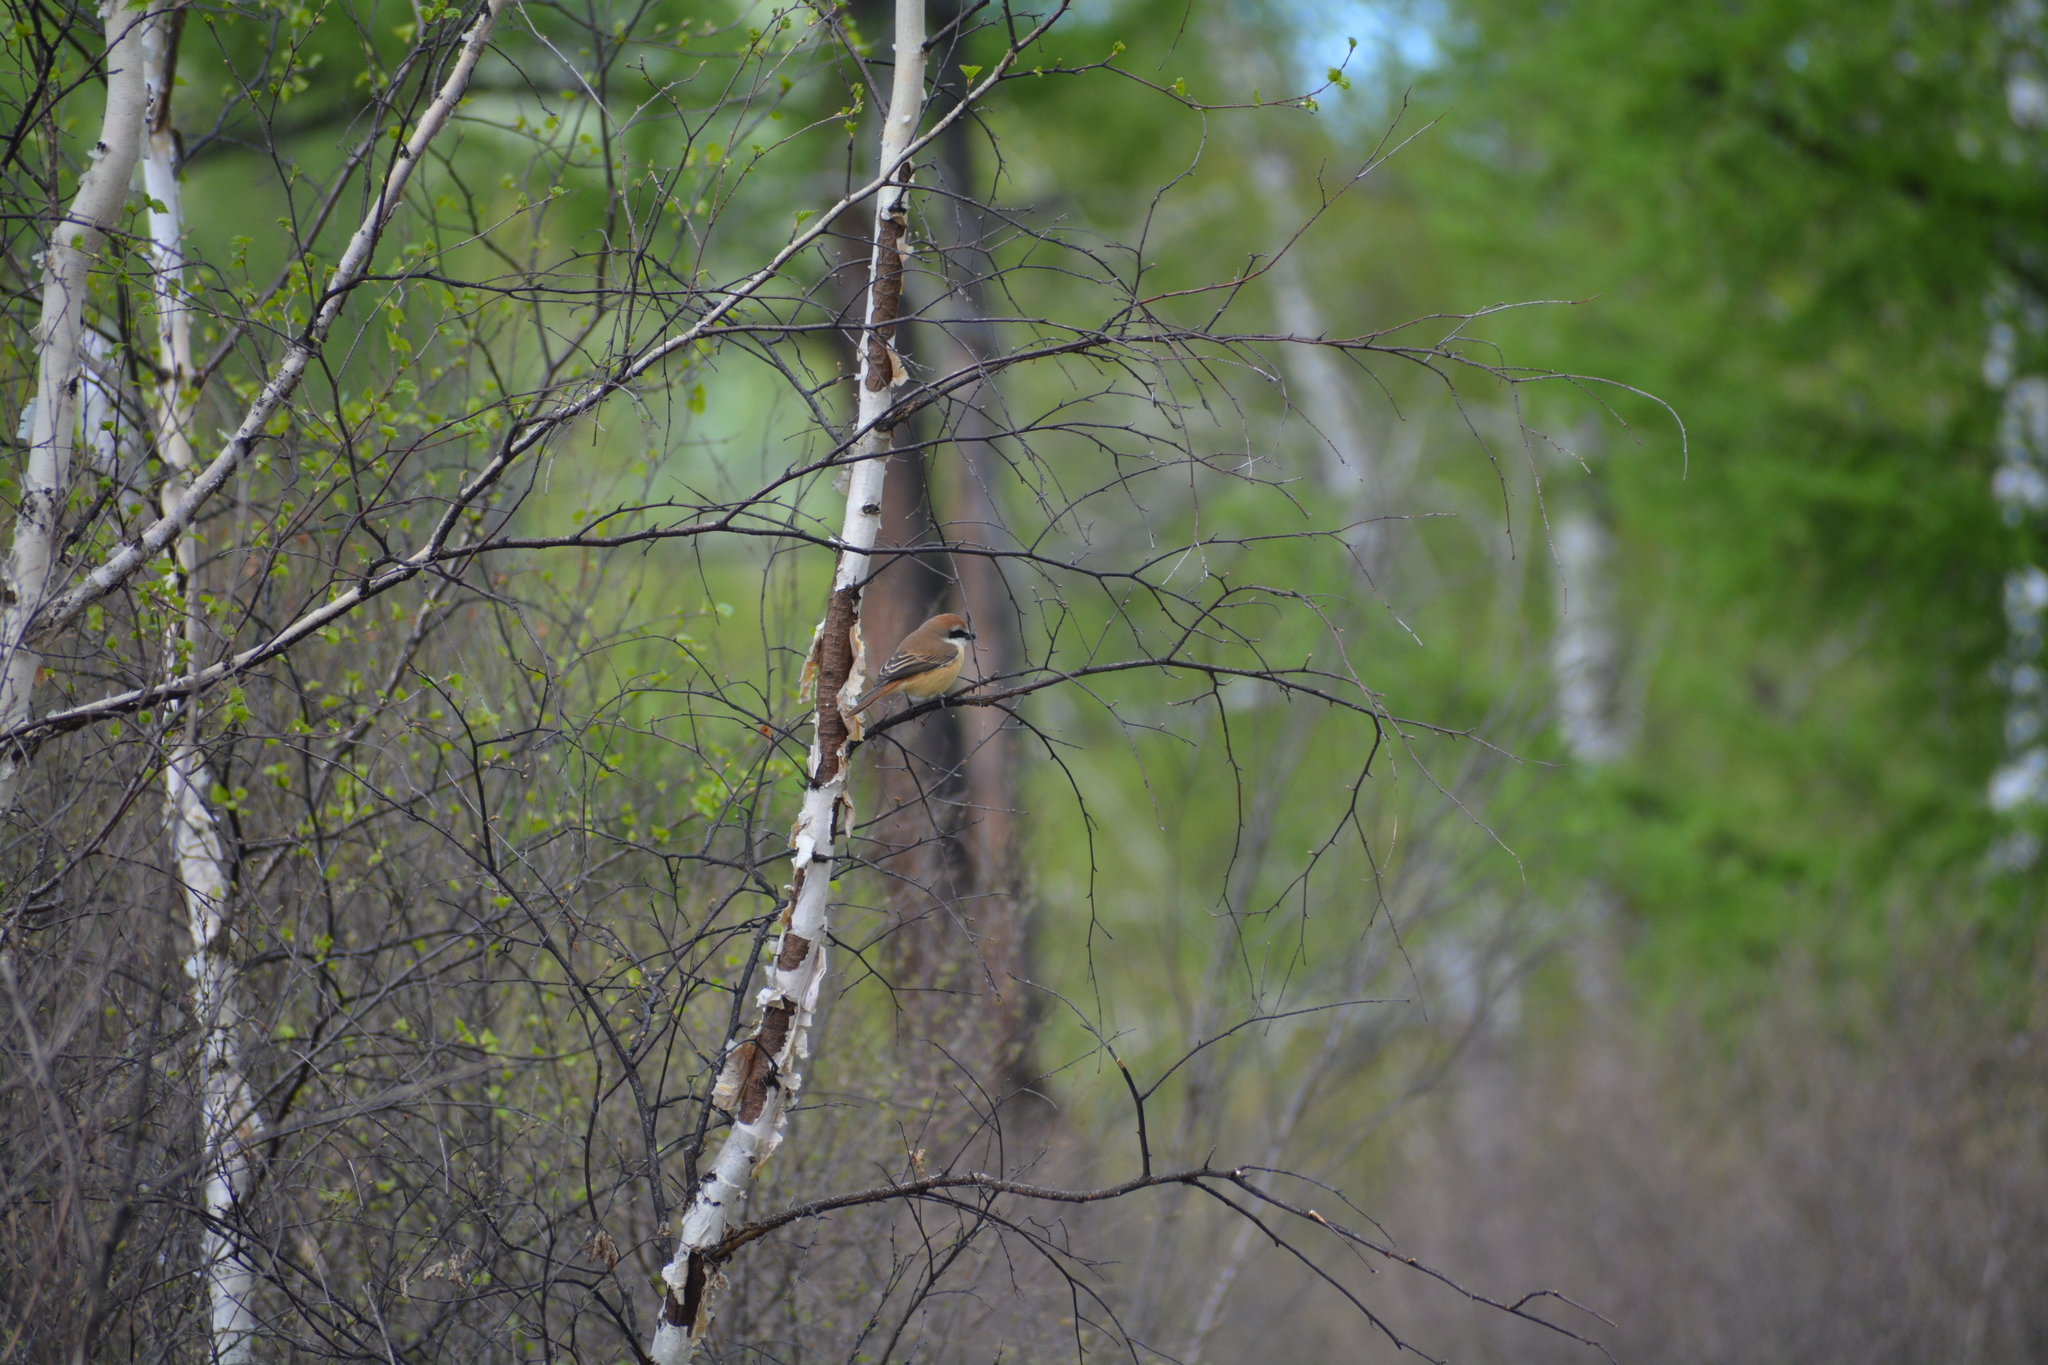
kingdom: Animalia
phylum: Chordata
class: Aves
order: Passeriformes
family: Laniidae
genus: Lanius
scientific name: Lanius cristatus
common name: Brown shrike
